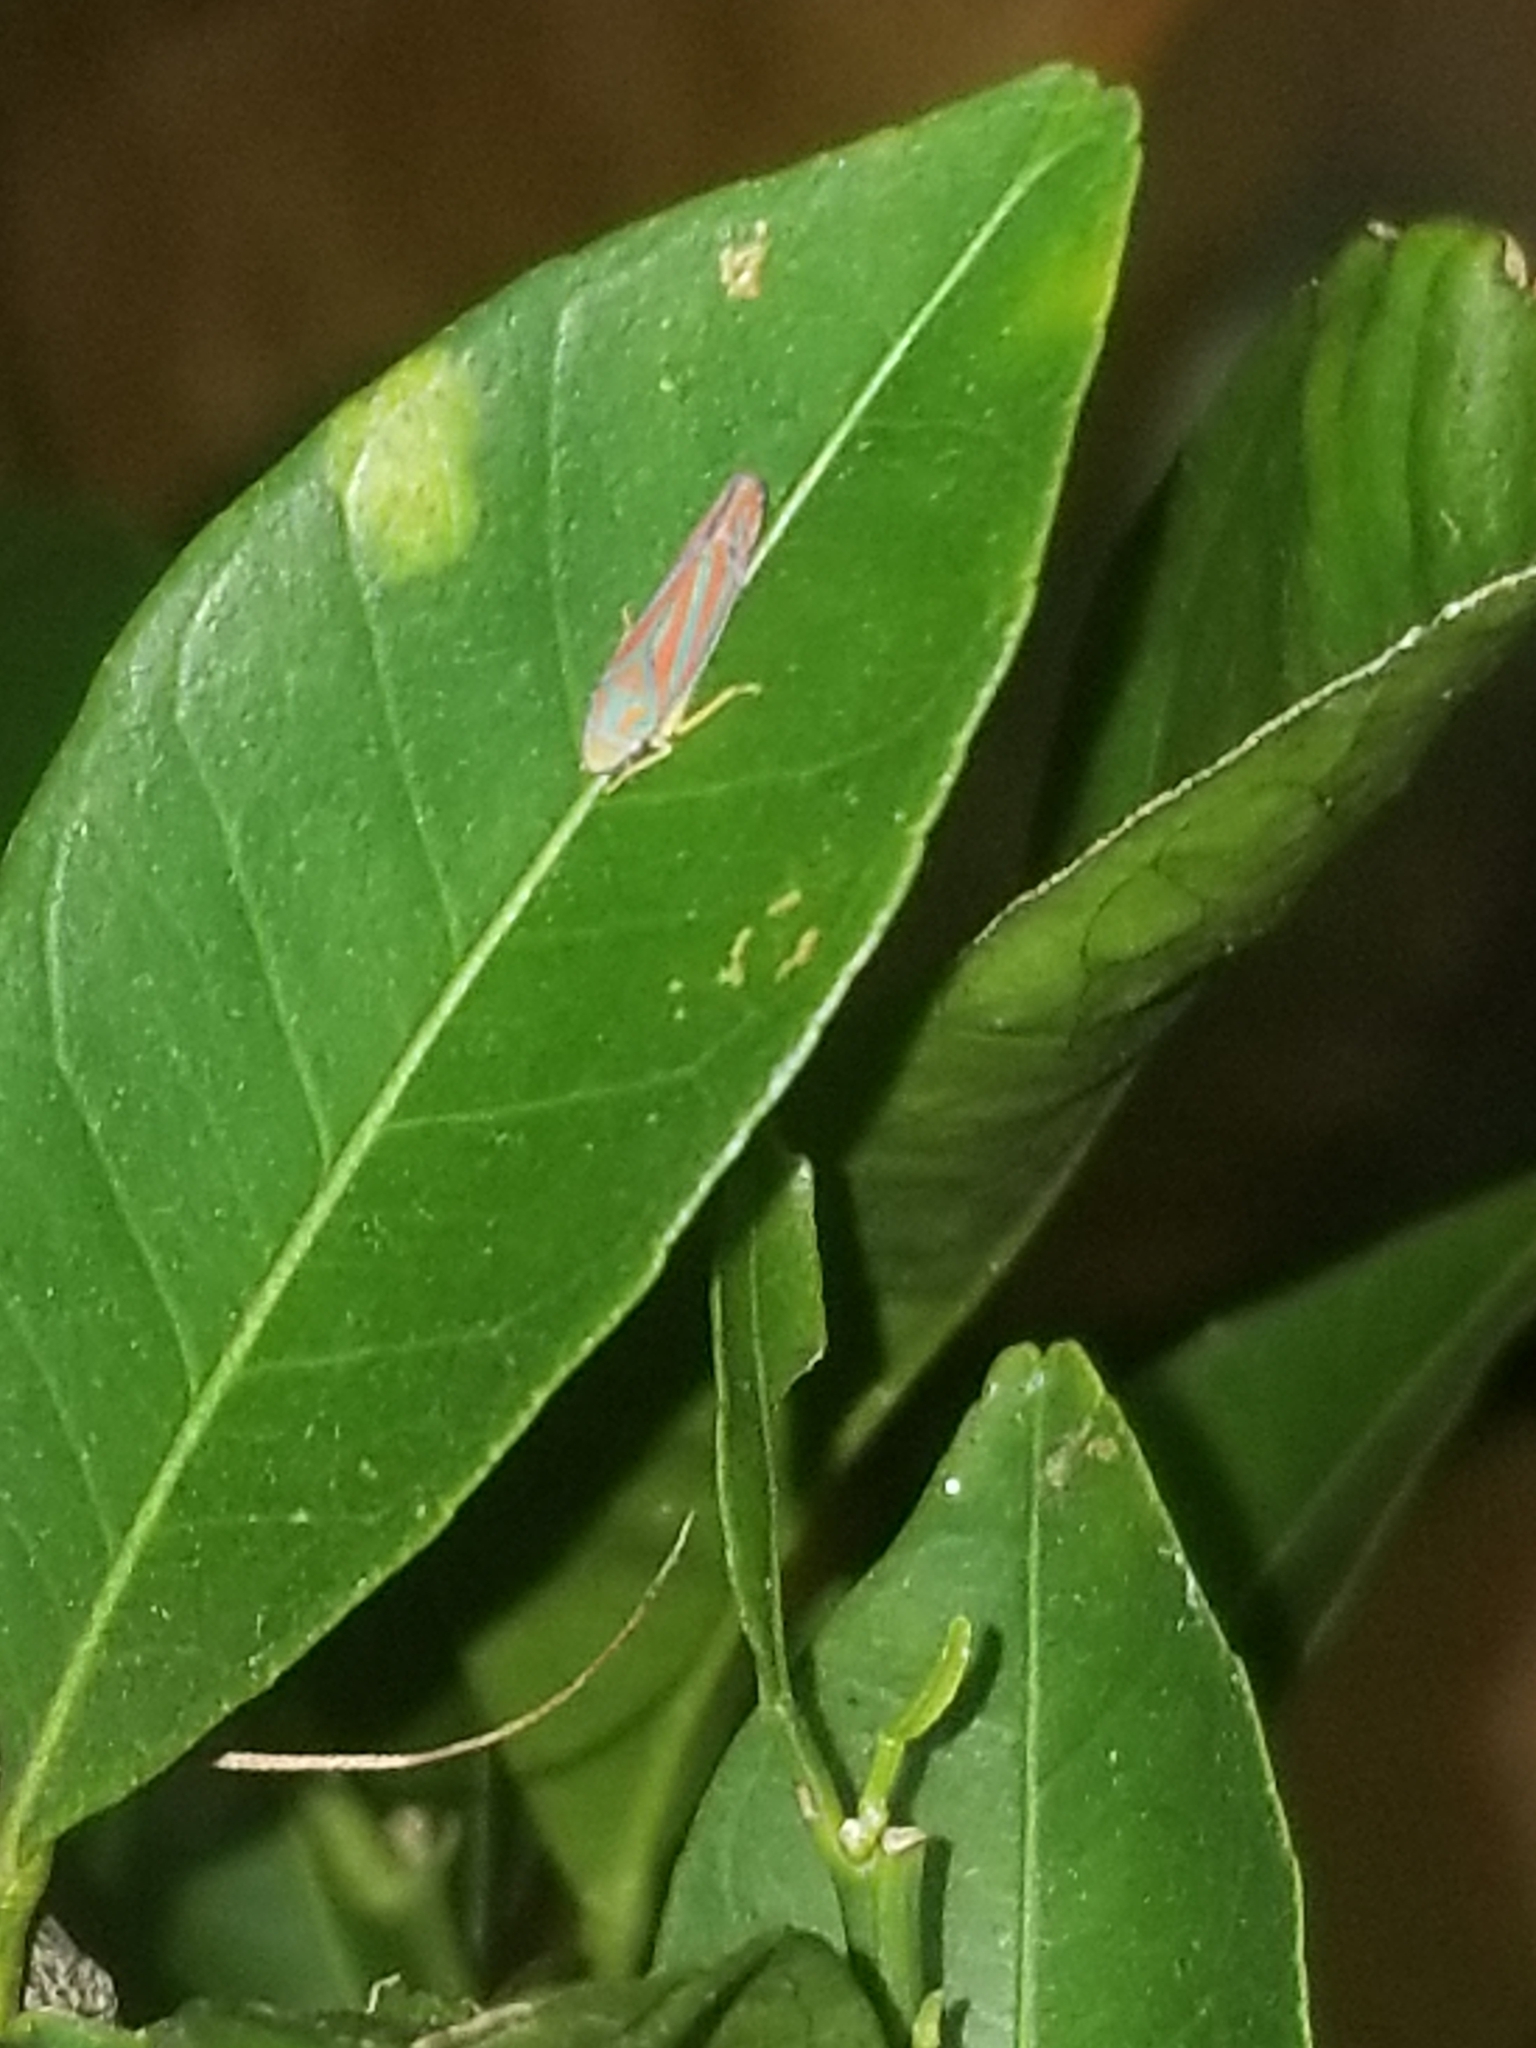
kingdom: Animalia
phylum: Arthropoda
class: Insecta
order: Hemiptera
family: Cicadellidae
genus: Graphocephala
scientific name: Graphocephala coccinea
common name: Candy-striped leafhopper
